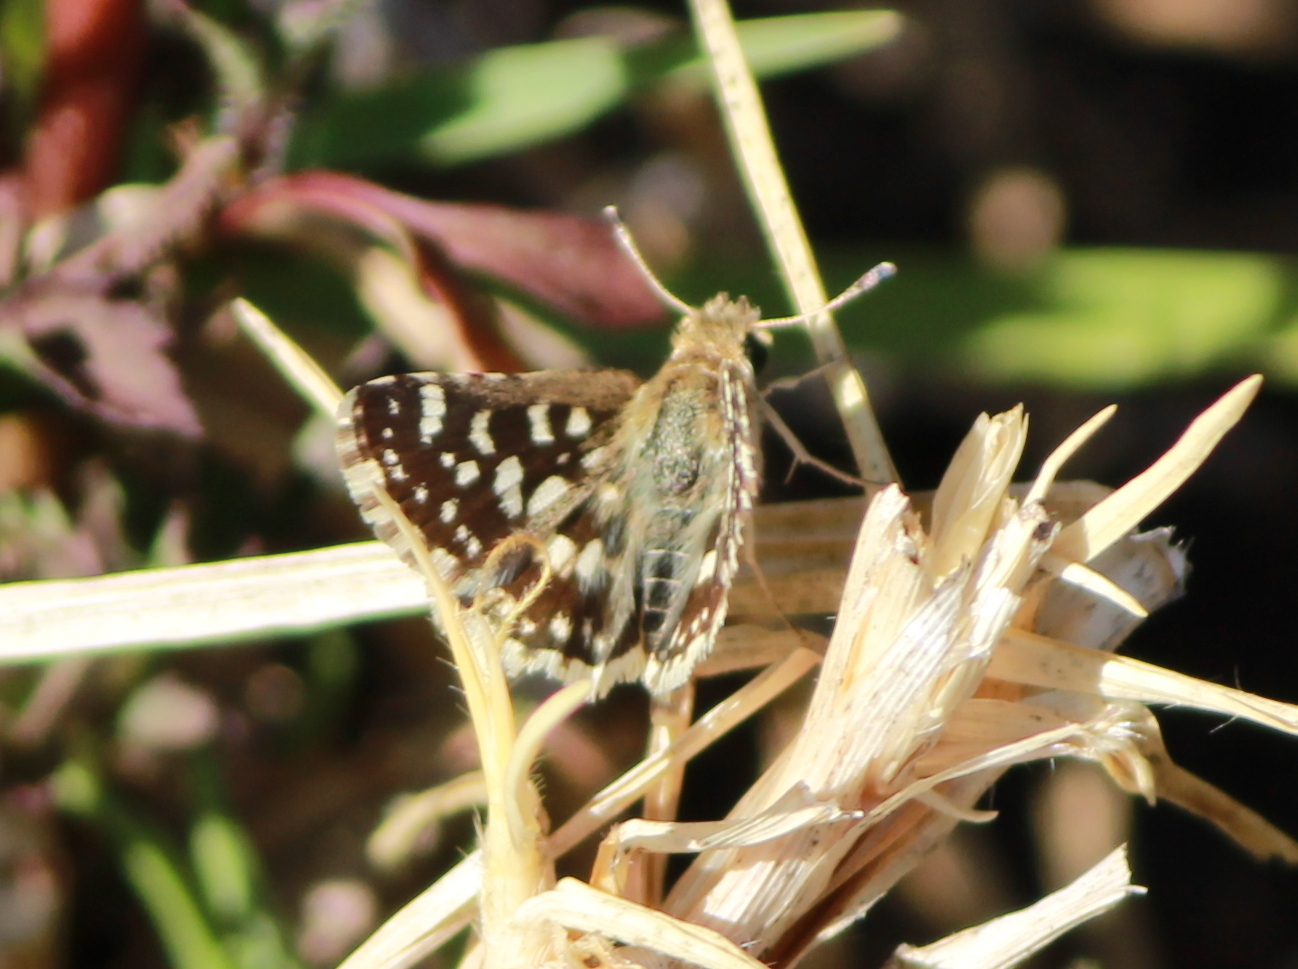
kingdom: Animalia
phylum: Arthropoda
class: Insecta
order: Lepidoptera
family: Hesperiidae
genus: Spialia
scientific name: Spialia galba
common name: Indian skipper
